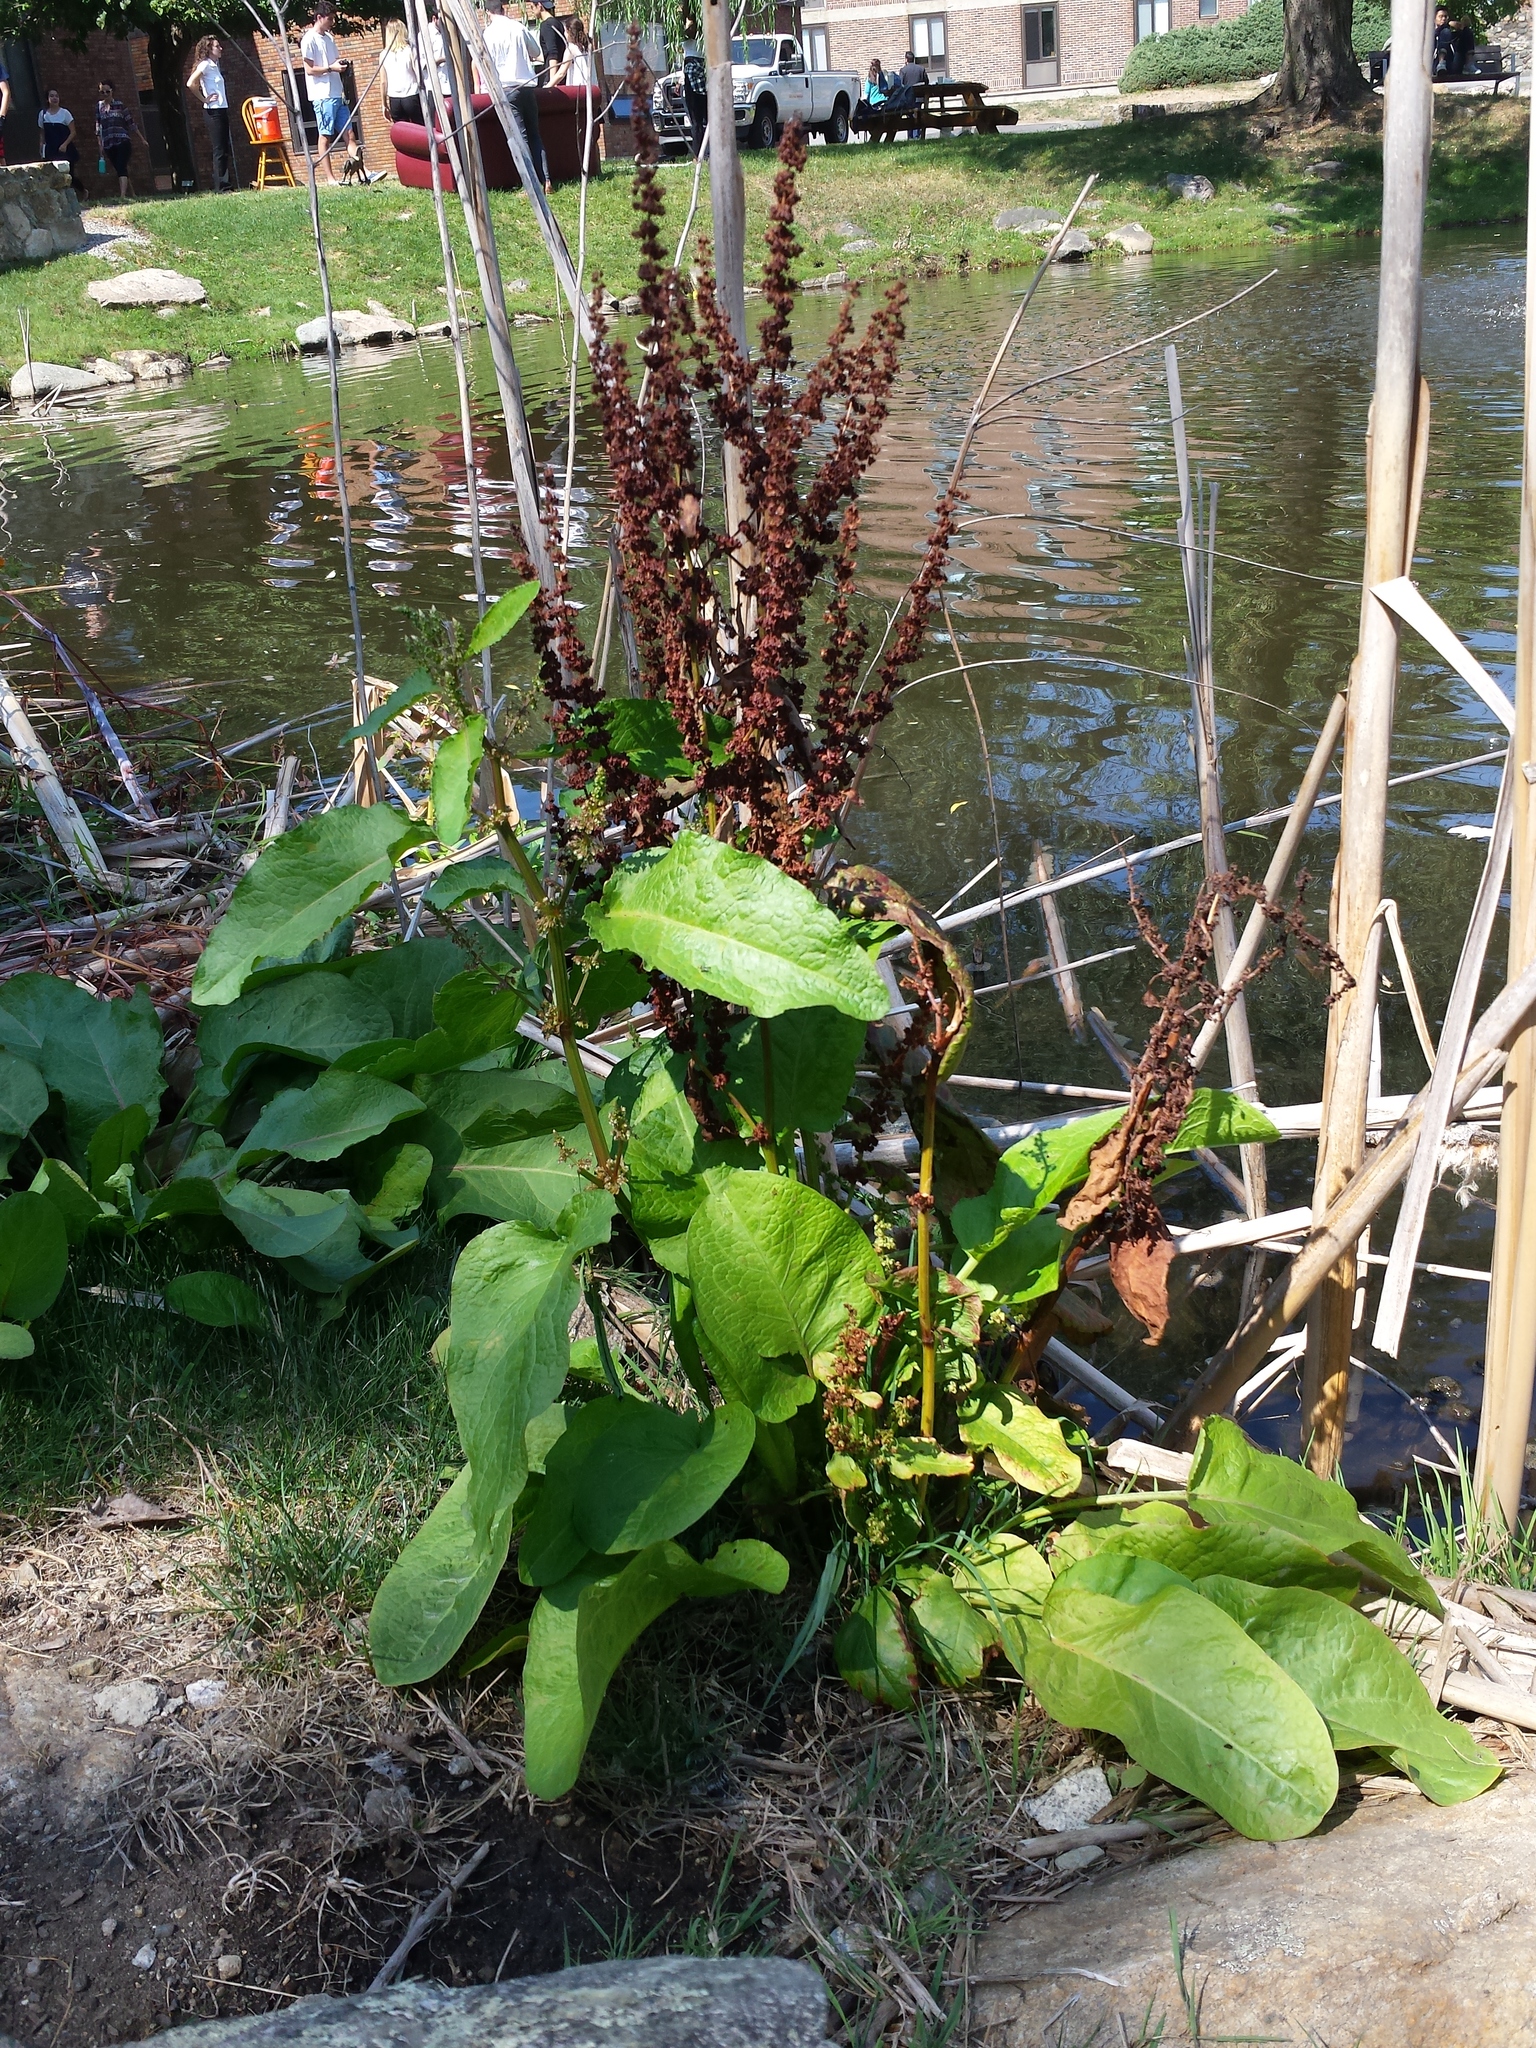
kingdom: Plantae
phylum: Tracheophyta
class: Magnoliopsida
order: Caryophyllales
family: Polygonaceae
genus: Rumex
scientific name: Rumex obtusifolius
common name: Bitter dock
